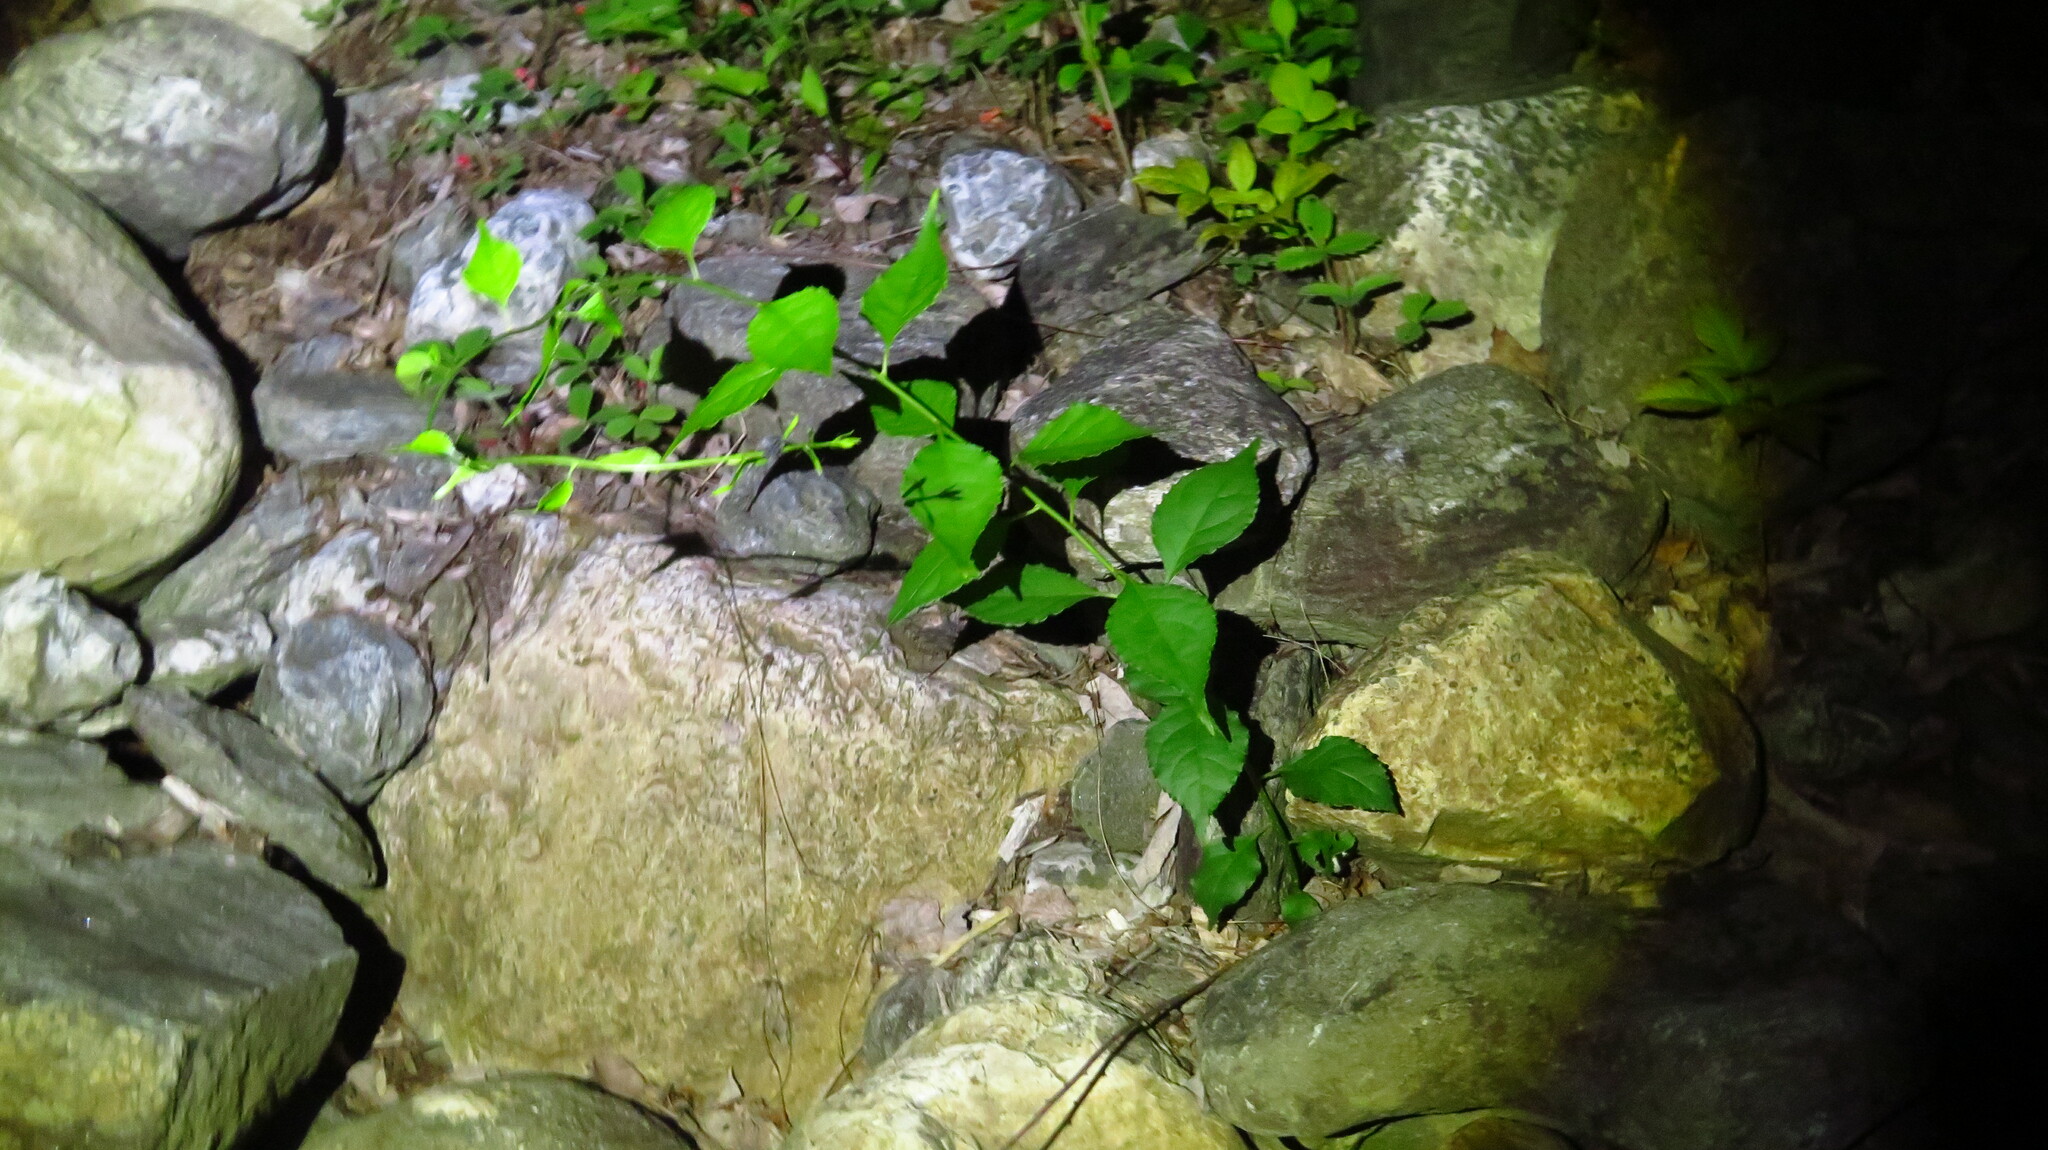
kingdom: Plantae
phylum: Tracheophyta
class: Magnoliopsida
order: Celastrales
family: Celastraceae
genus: Celastrus
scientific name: Celastrus orbiculatus
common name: Oriental bittersweet
